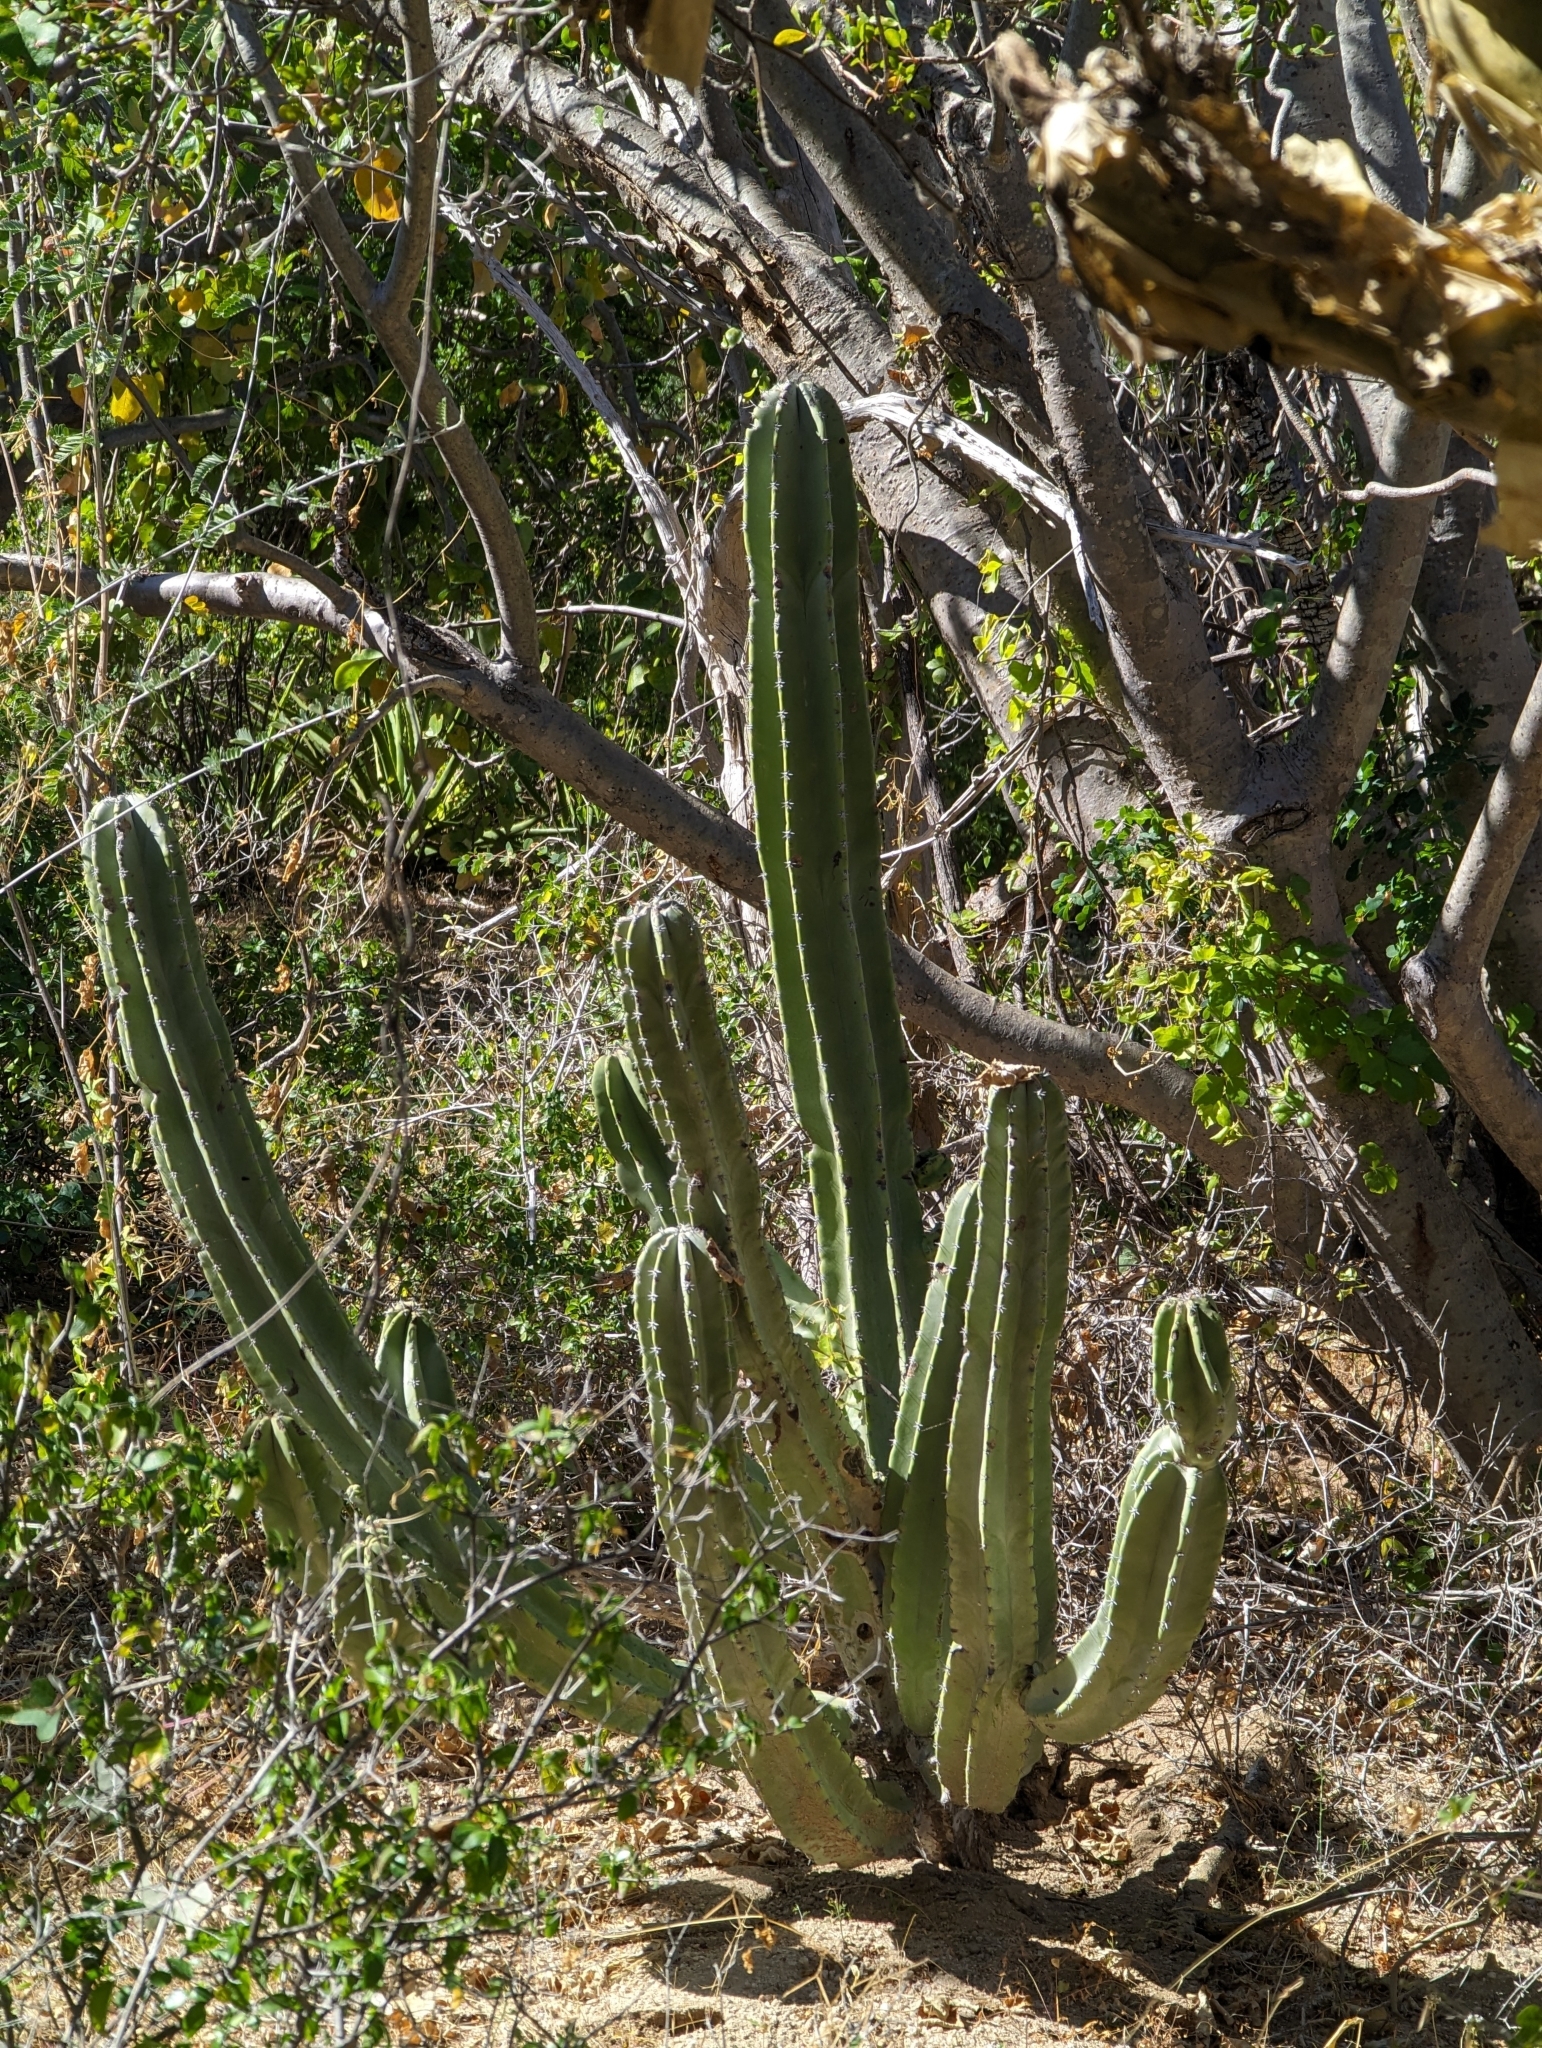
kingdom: Plantae
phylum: Tracheophyta
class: Magnoliopsida
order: Caryophyllales
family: Cactaceae
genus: Pachycereus
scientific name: Pachycereus schottii
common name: Senita cactus
